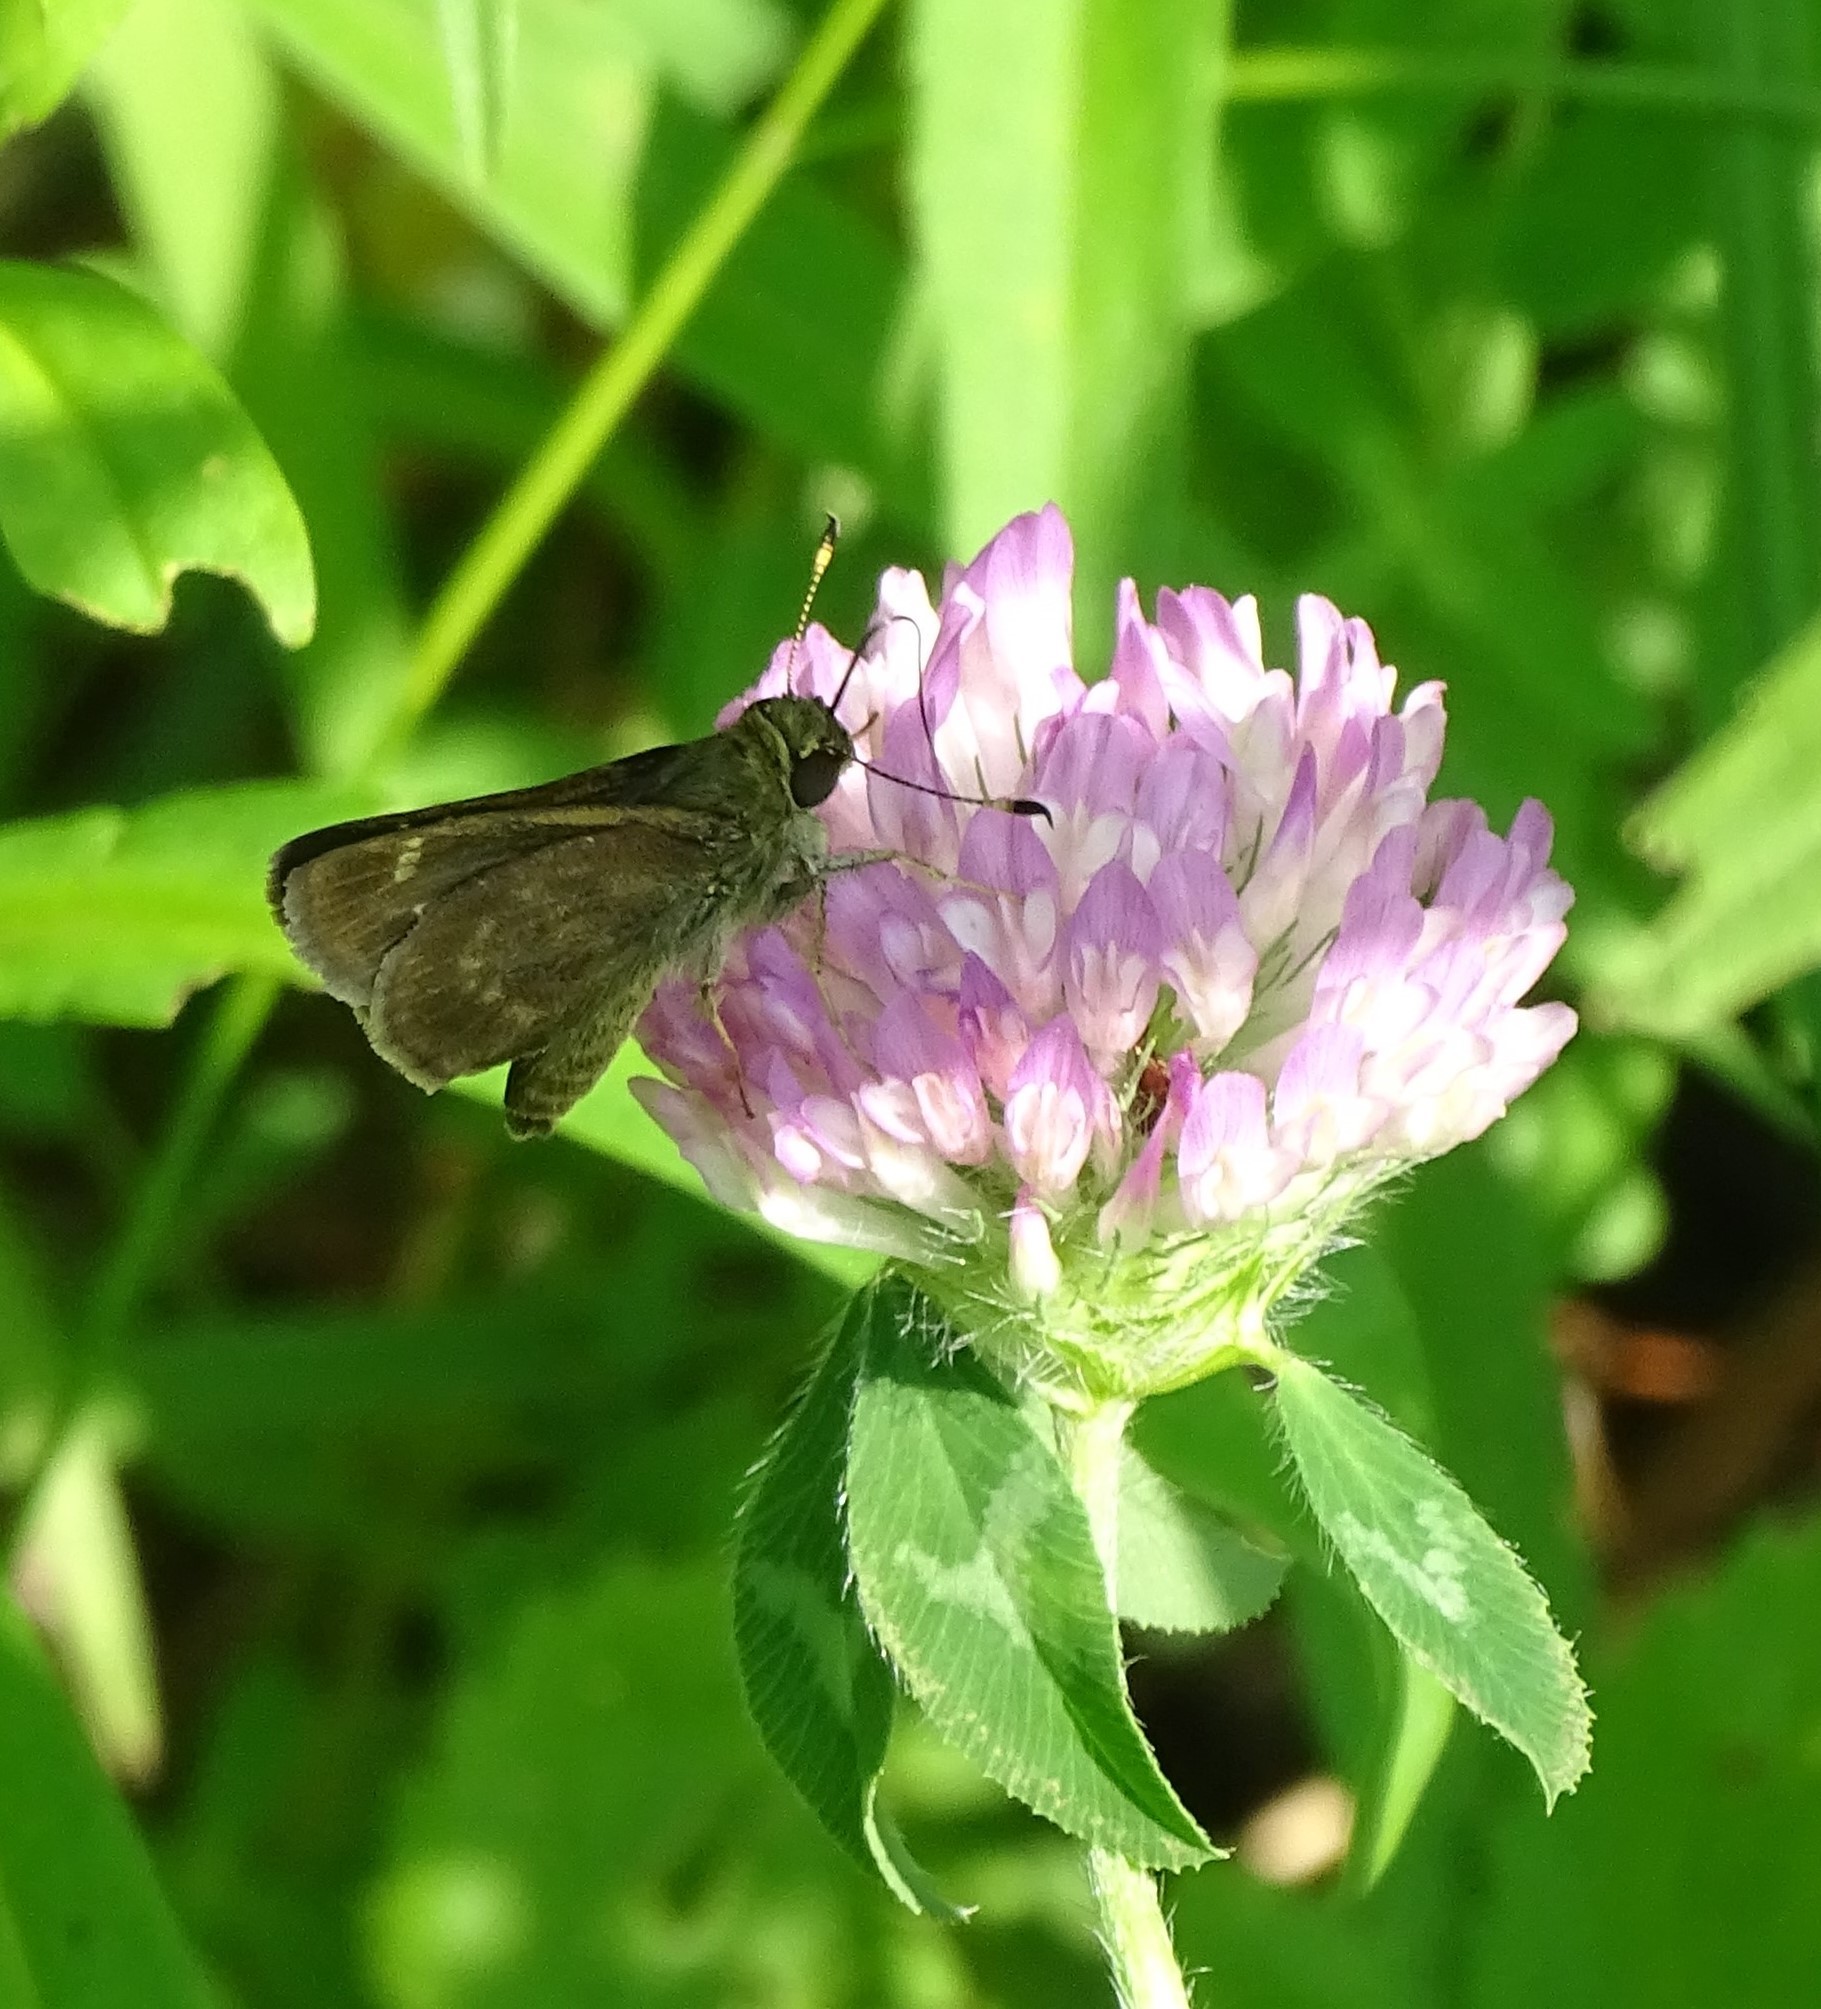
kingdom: Animalia
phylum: Arthropoda
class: Insecta
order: Lepidoptera
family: Hesperiidae
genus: Vernia
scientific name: Vernia verna
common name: Little glassywing
